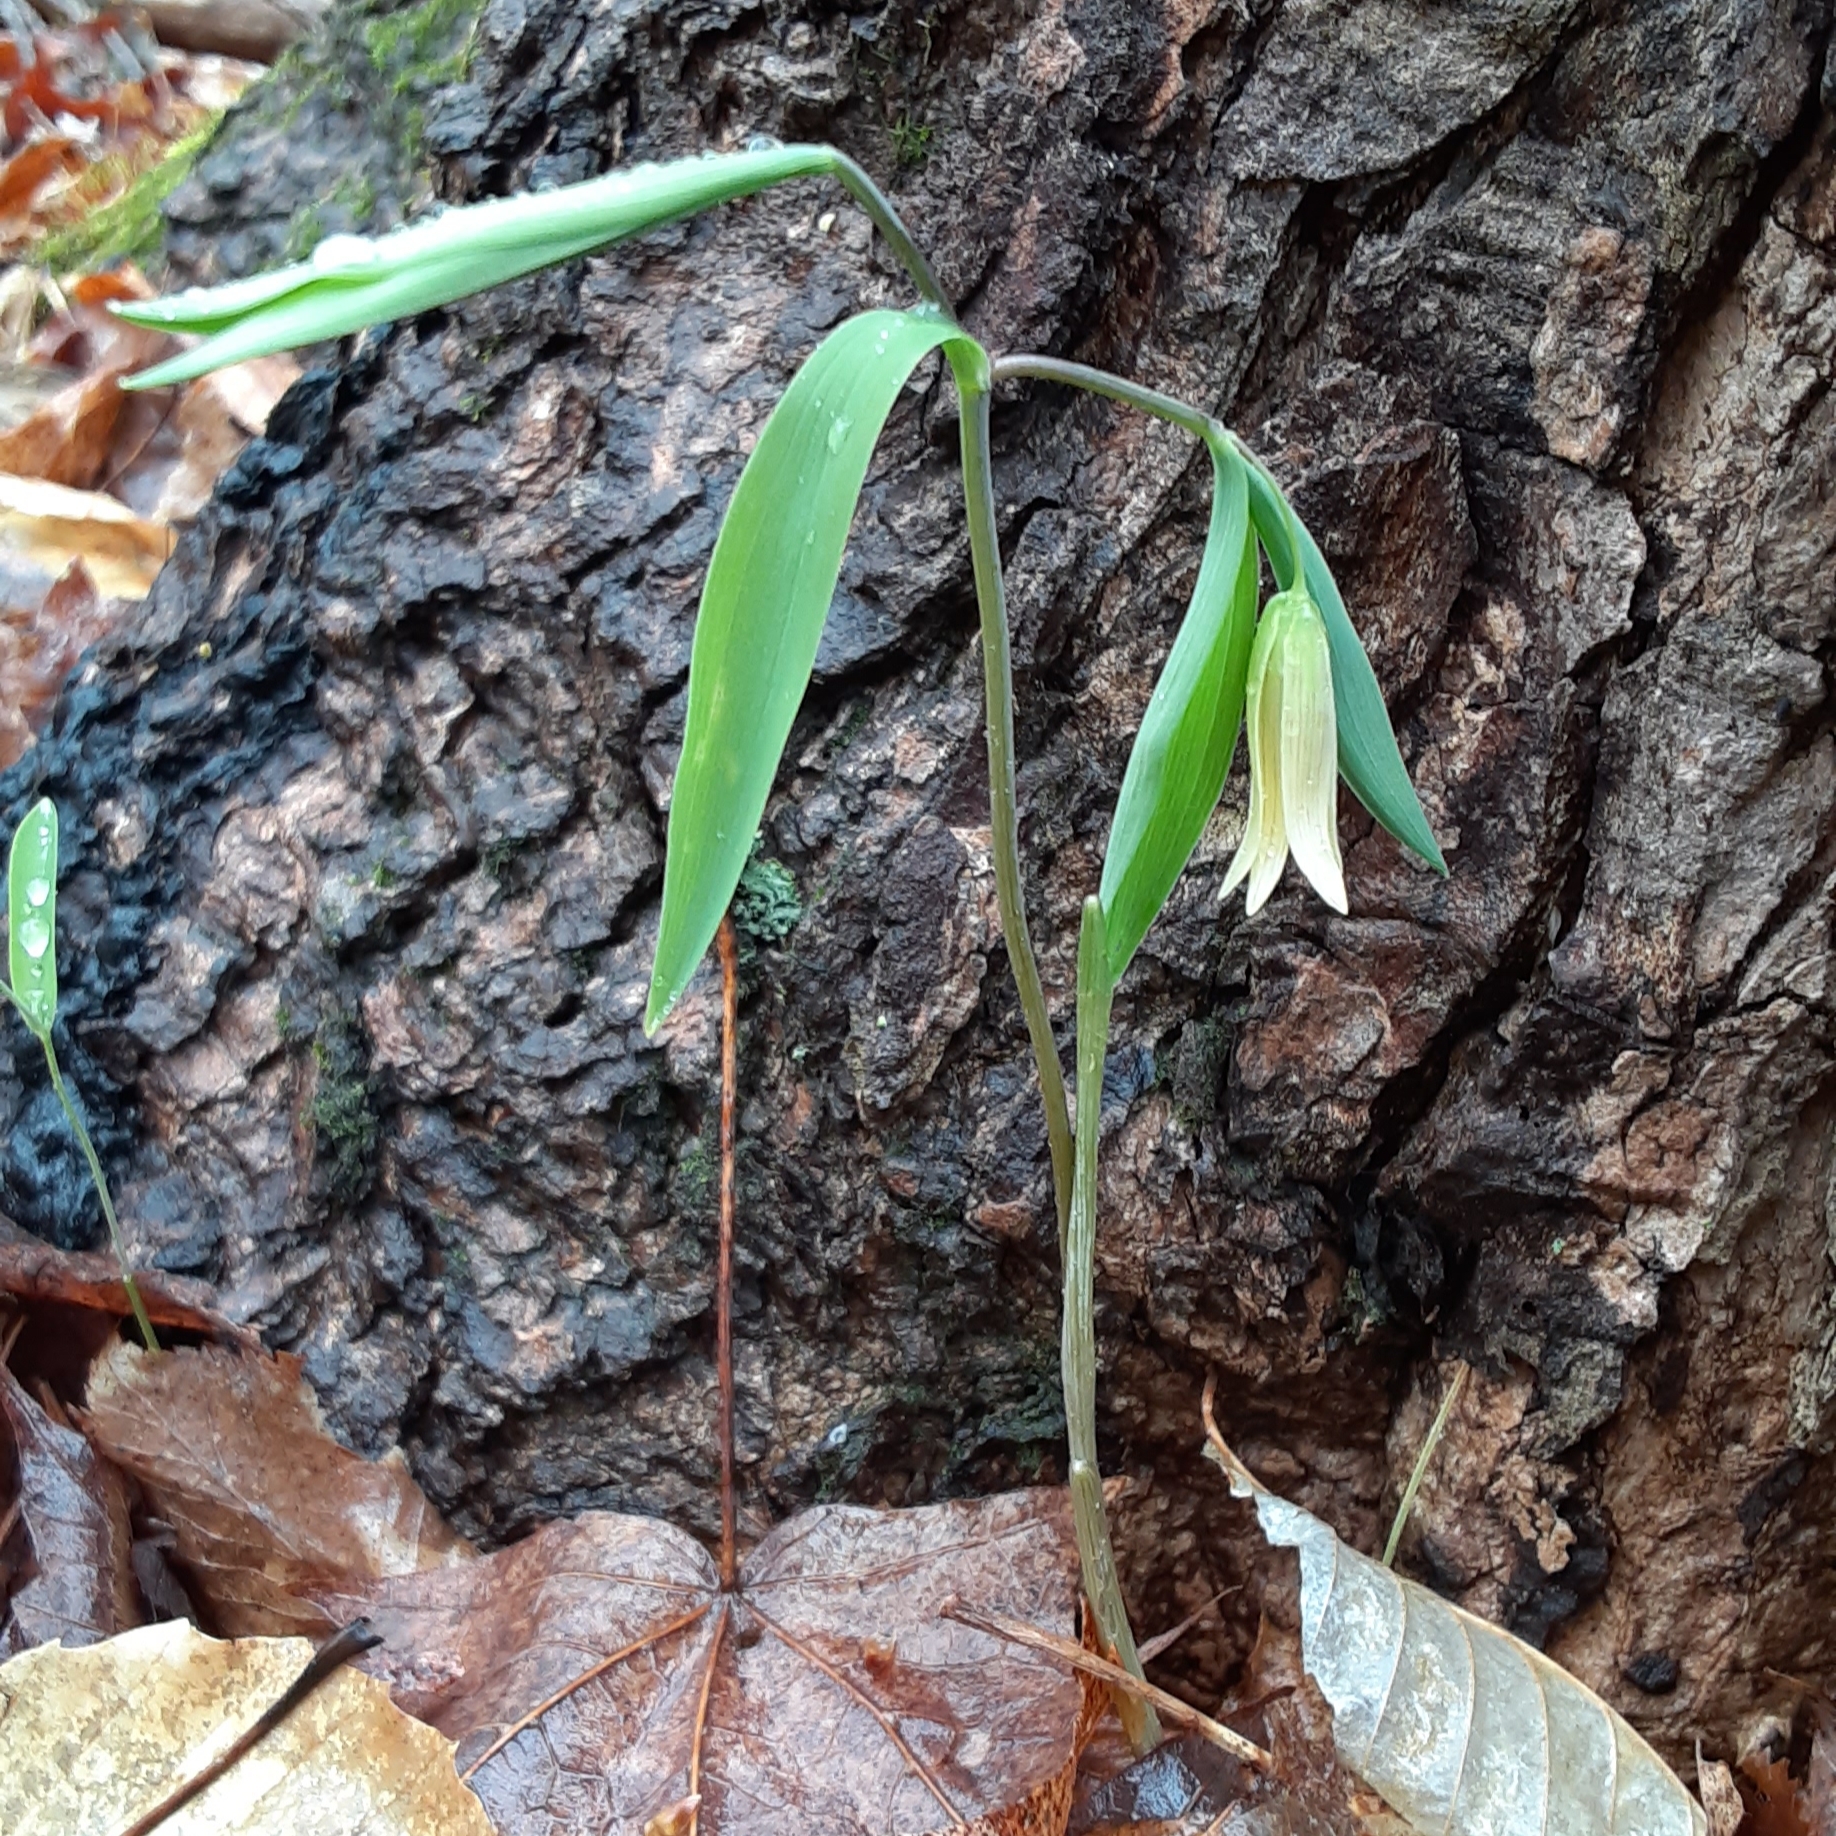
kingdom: Plantae
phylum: Tracheophyta
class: Liliopsida
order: Liliales
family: Colchicaceae
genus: Uvularia
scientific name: Uvularia sessilifolia
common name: Straw-lily
